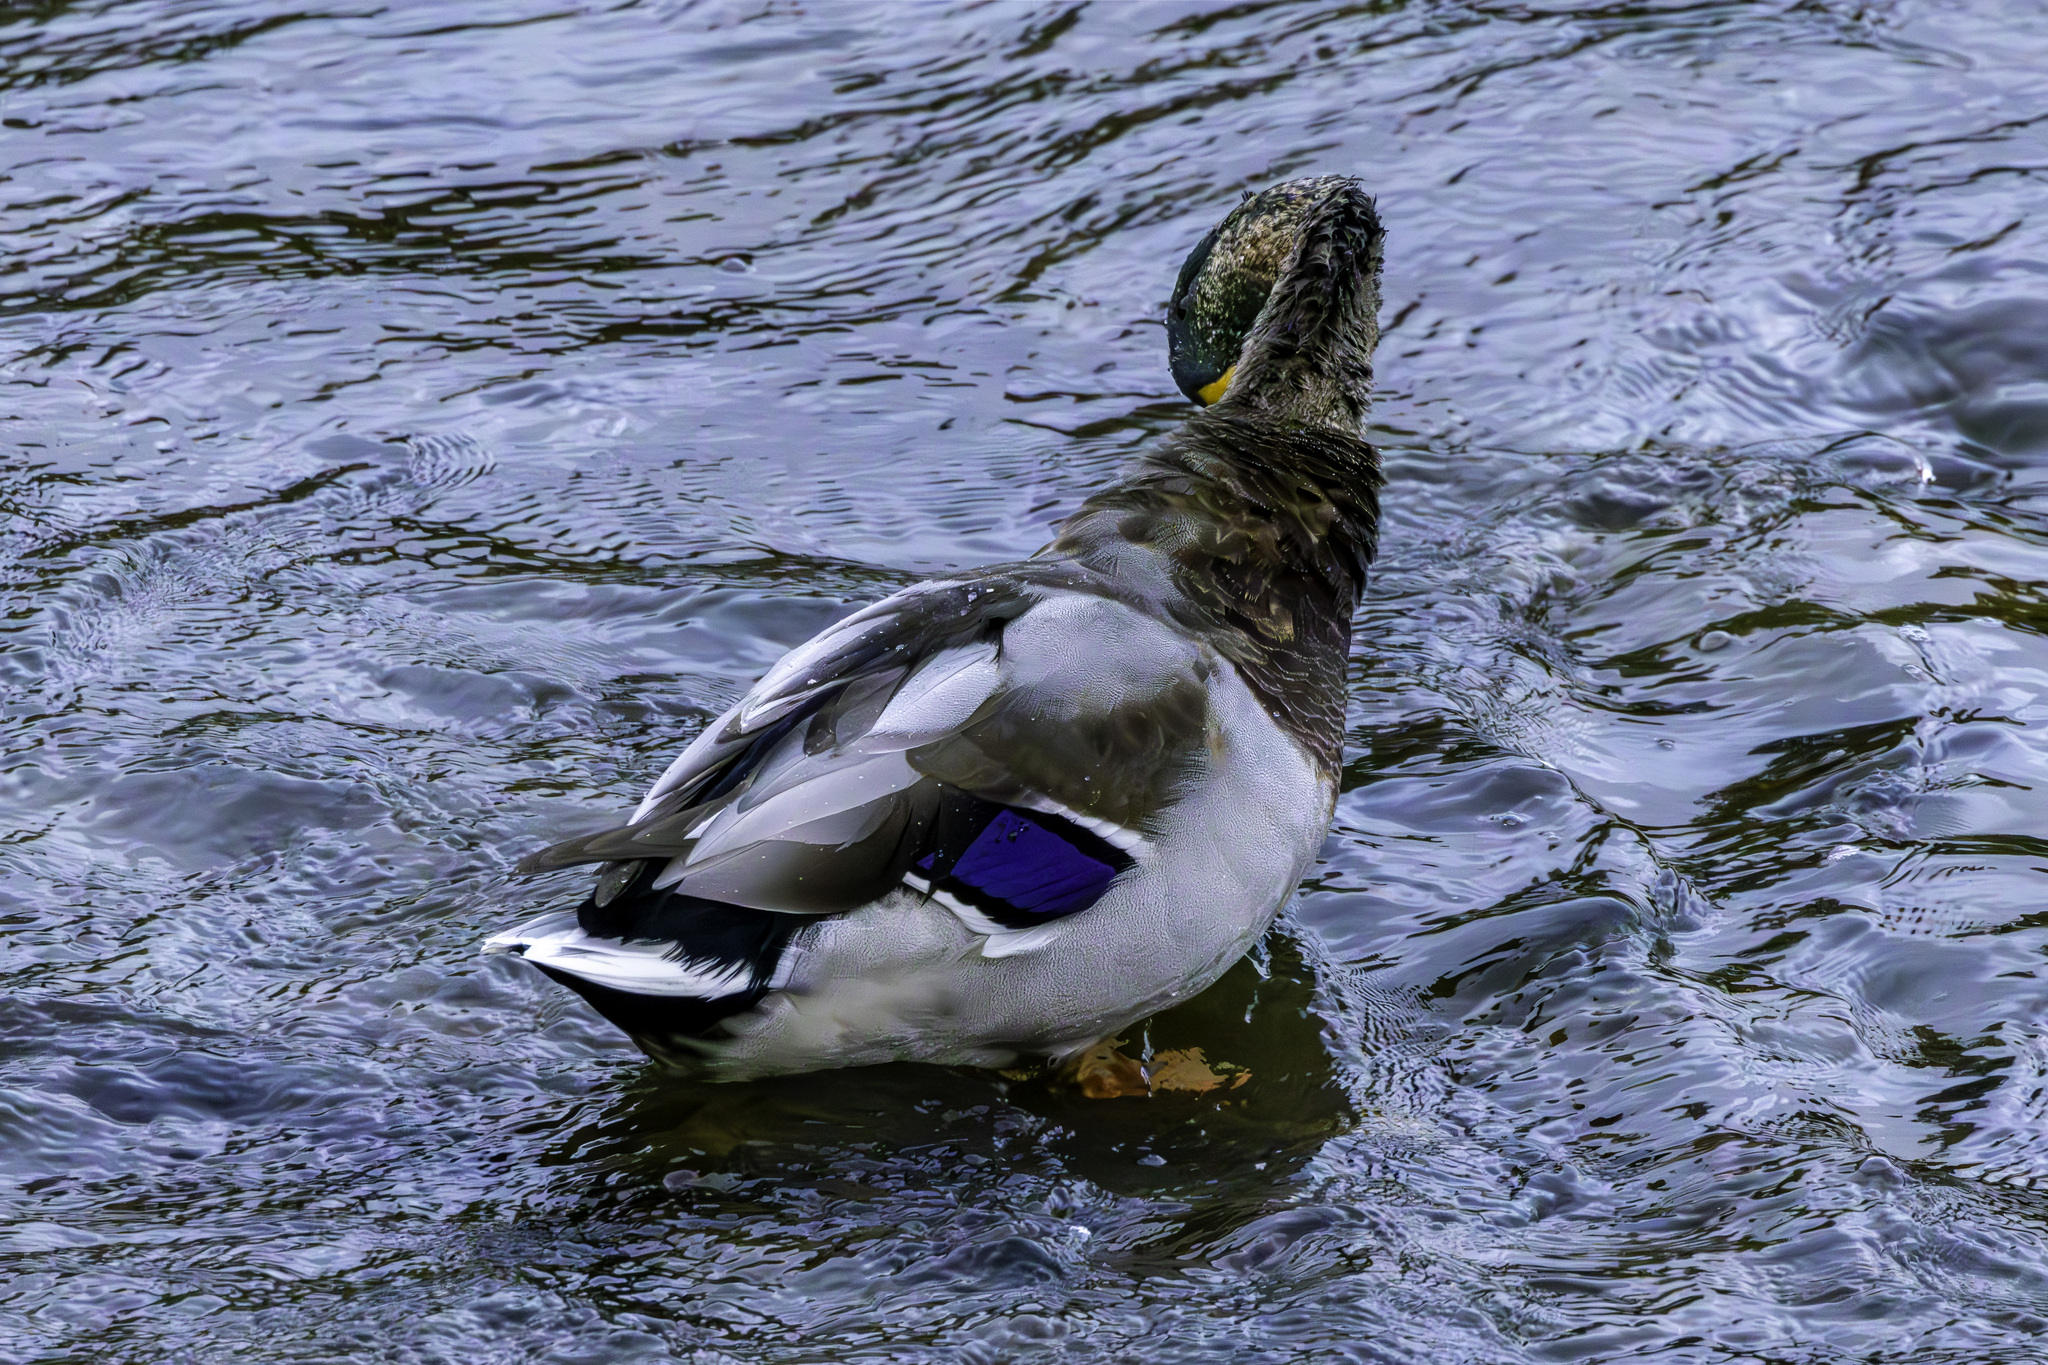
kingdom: Animalia
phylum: Chordata
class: Aves
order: Anseriformes
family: Anatidae
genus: Anas
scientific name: Anas platyrhynchos
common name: Mallard
